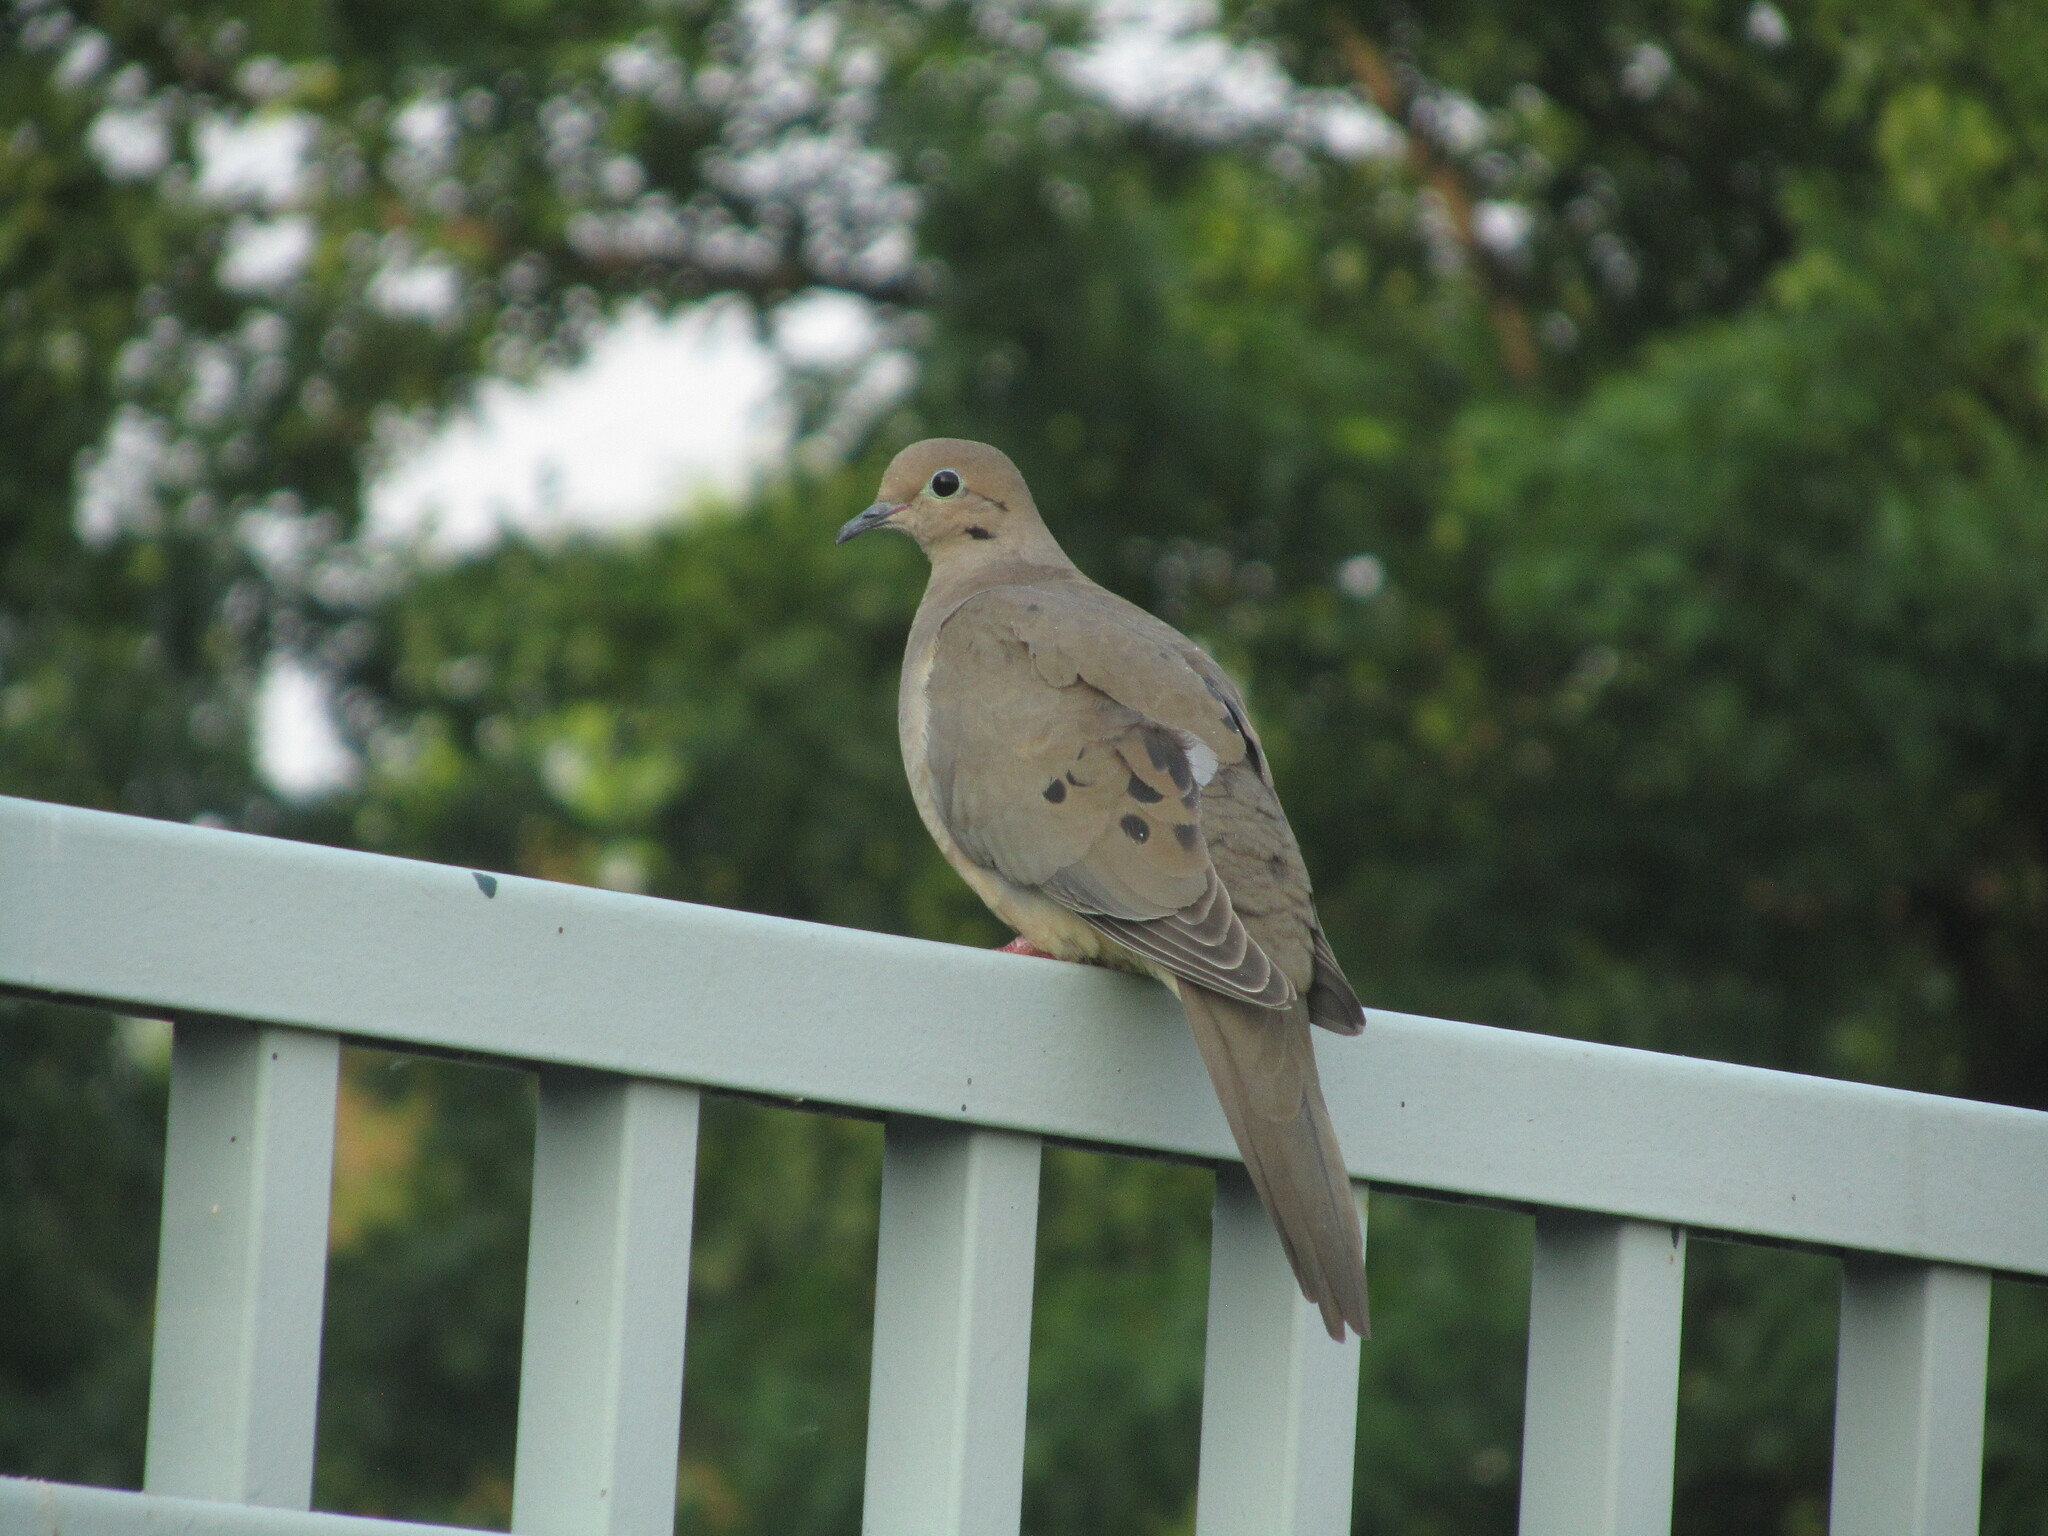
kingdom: Animalia
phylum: Chordata
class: Aves
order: Columbiformes
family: Columbidae
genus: Zenaida
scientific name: Zenaida macroura
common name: Mourning dove
